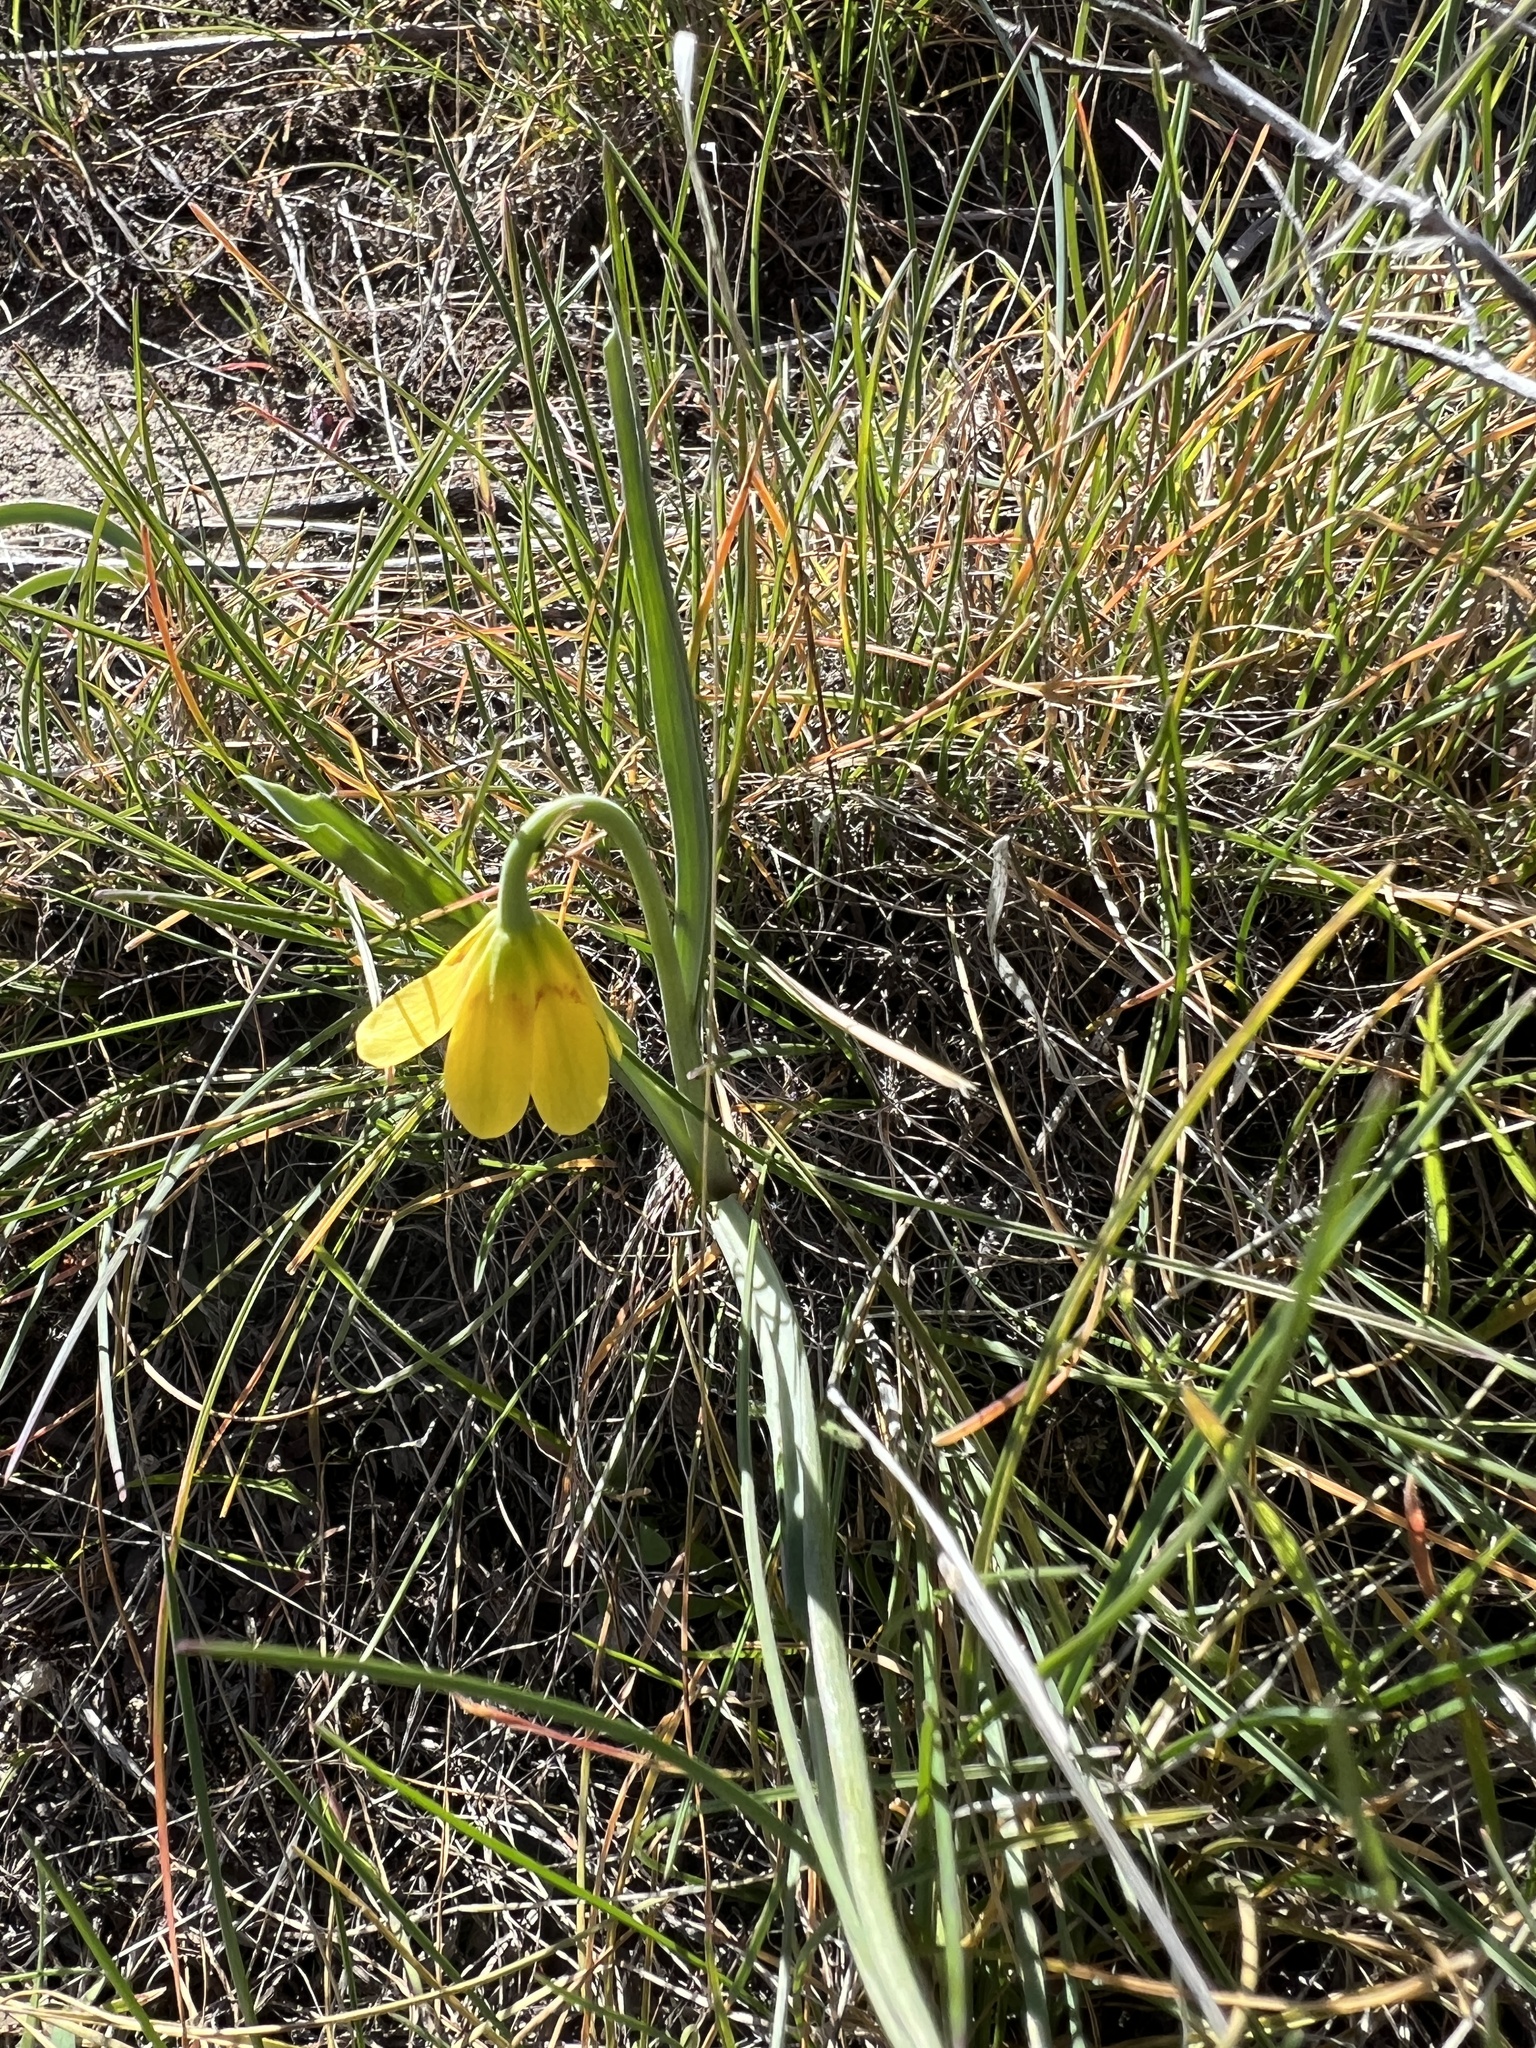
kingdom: Plantae
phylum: Tracheophyta
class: Liliopsida
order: Liliales
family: Liliaceae
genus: Fritillaria
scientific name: Fritillaria pudica
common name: Yellow fritillary
